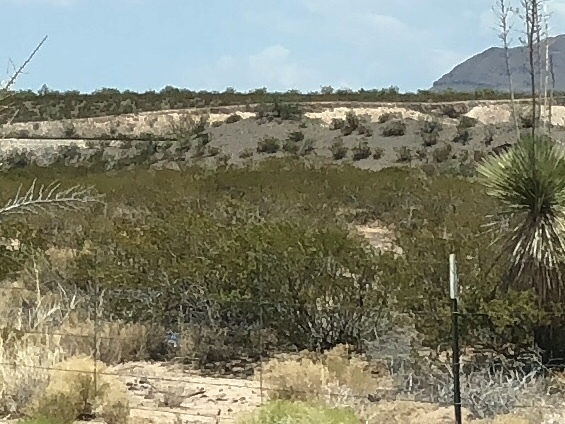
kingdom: Plantae
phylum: Tracheophyta
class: Magnoliopsida
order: Zygophyllales
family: Zygophyllaceae
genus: Larrea
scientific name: Larrea tridentata
